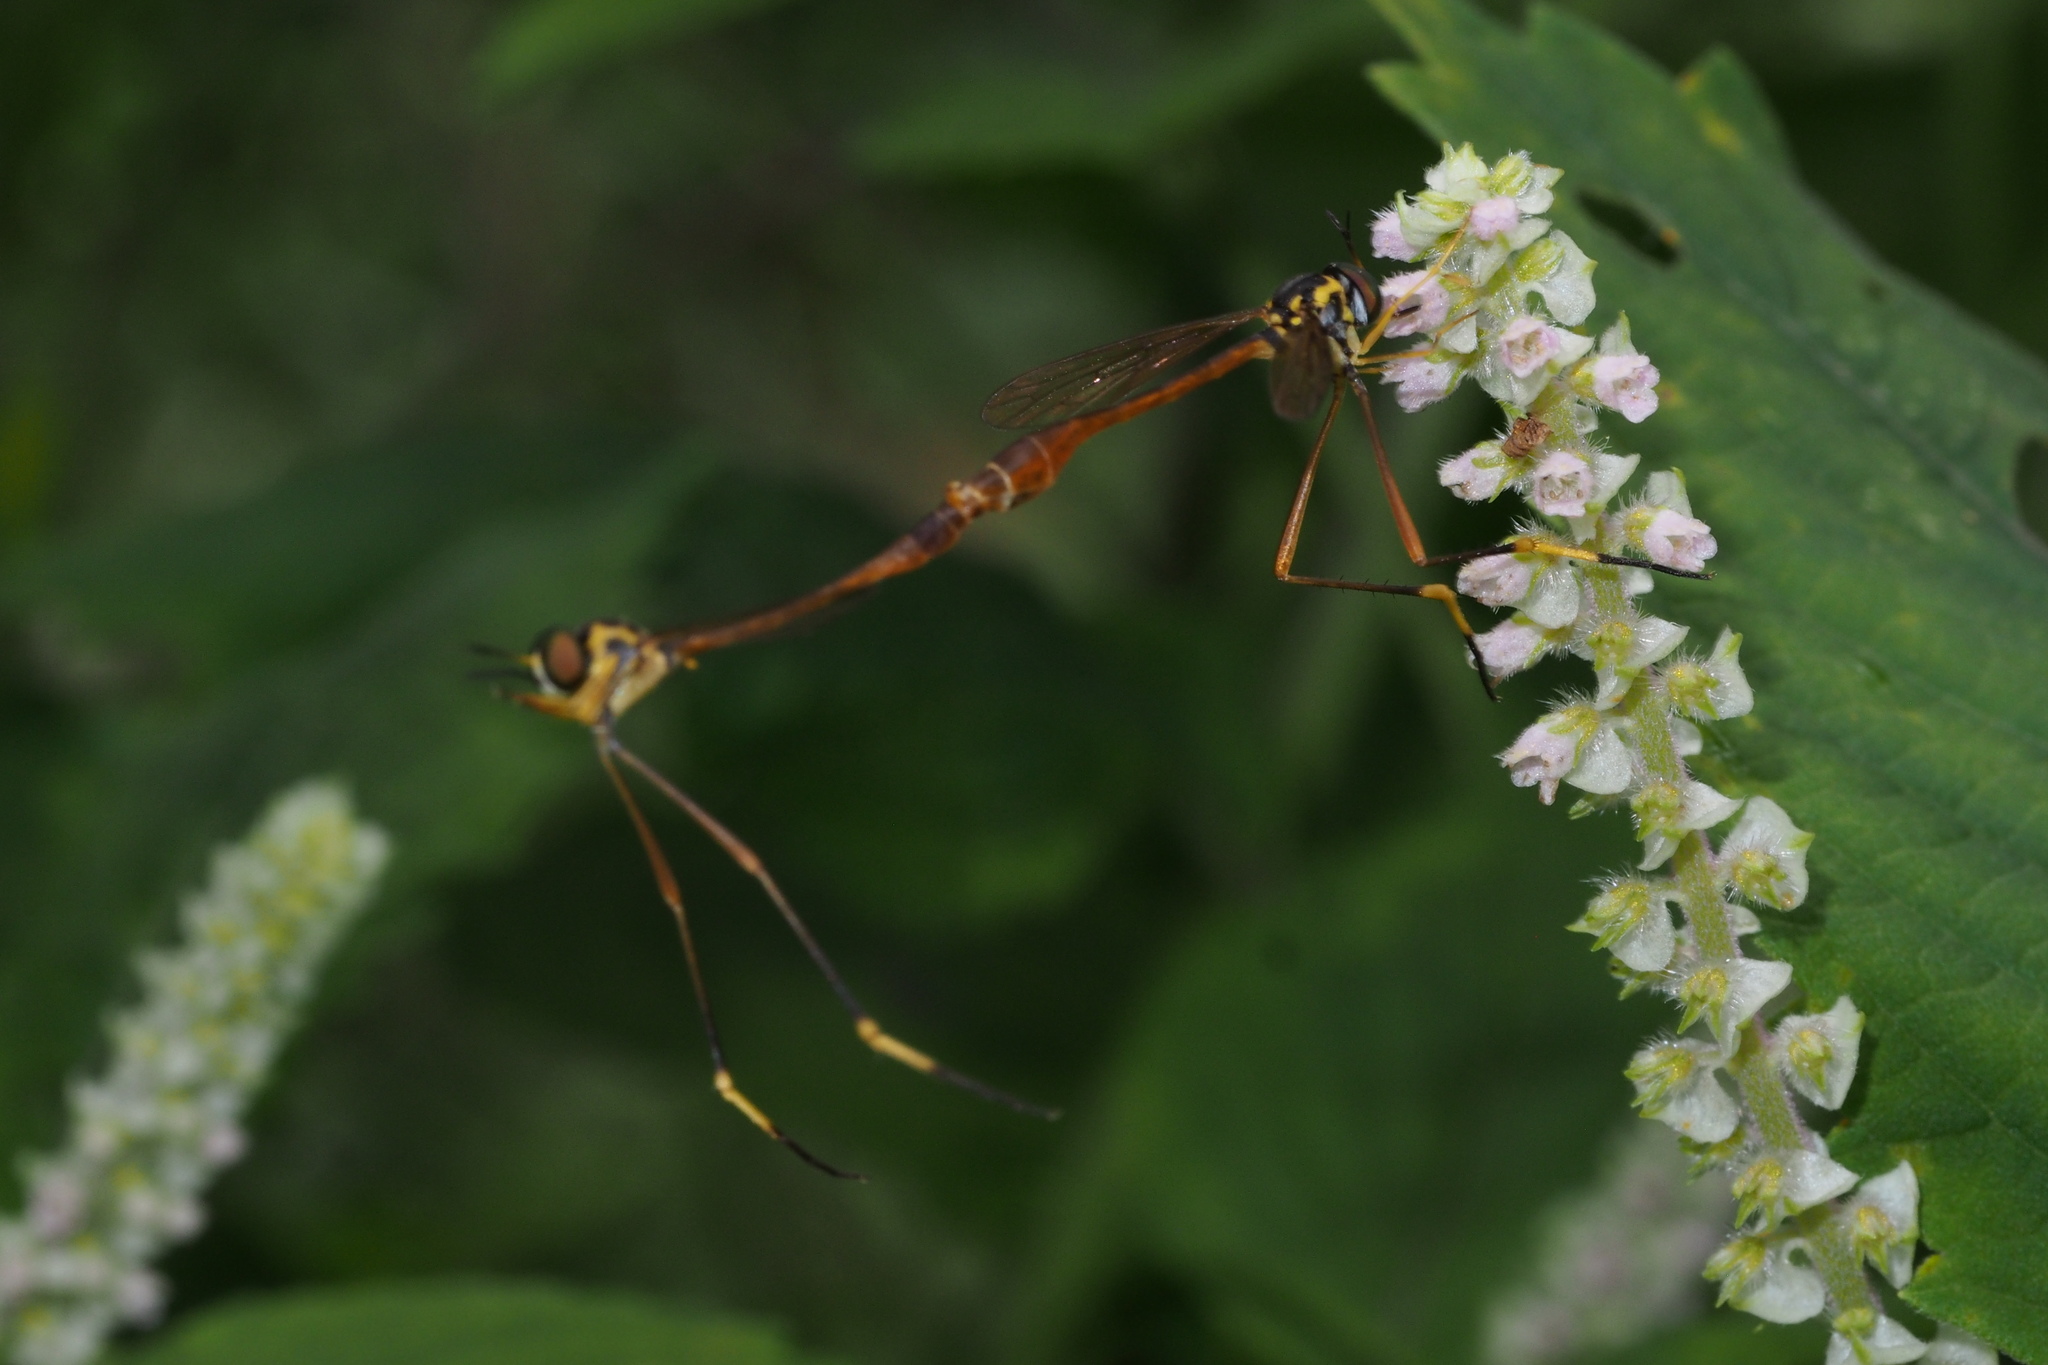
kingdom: Animalia
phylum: Arthropoda
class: Insecta
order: Diptera
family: Bombyliidae
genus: Systropus
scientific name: Systropus nitobei
